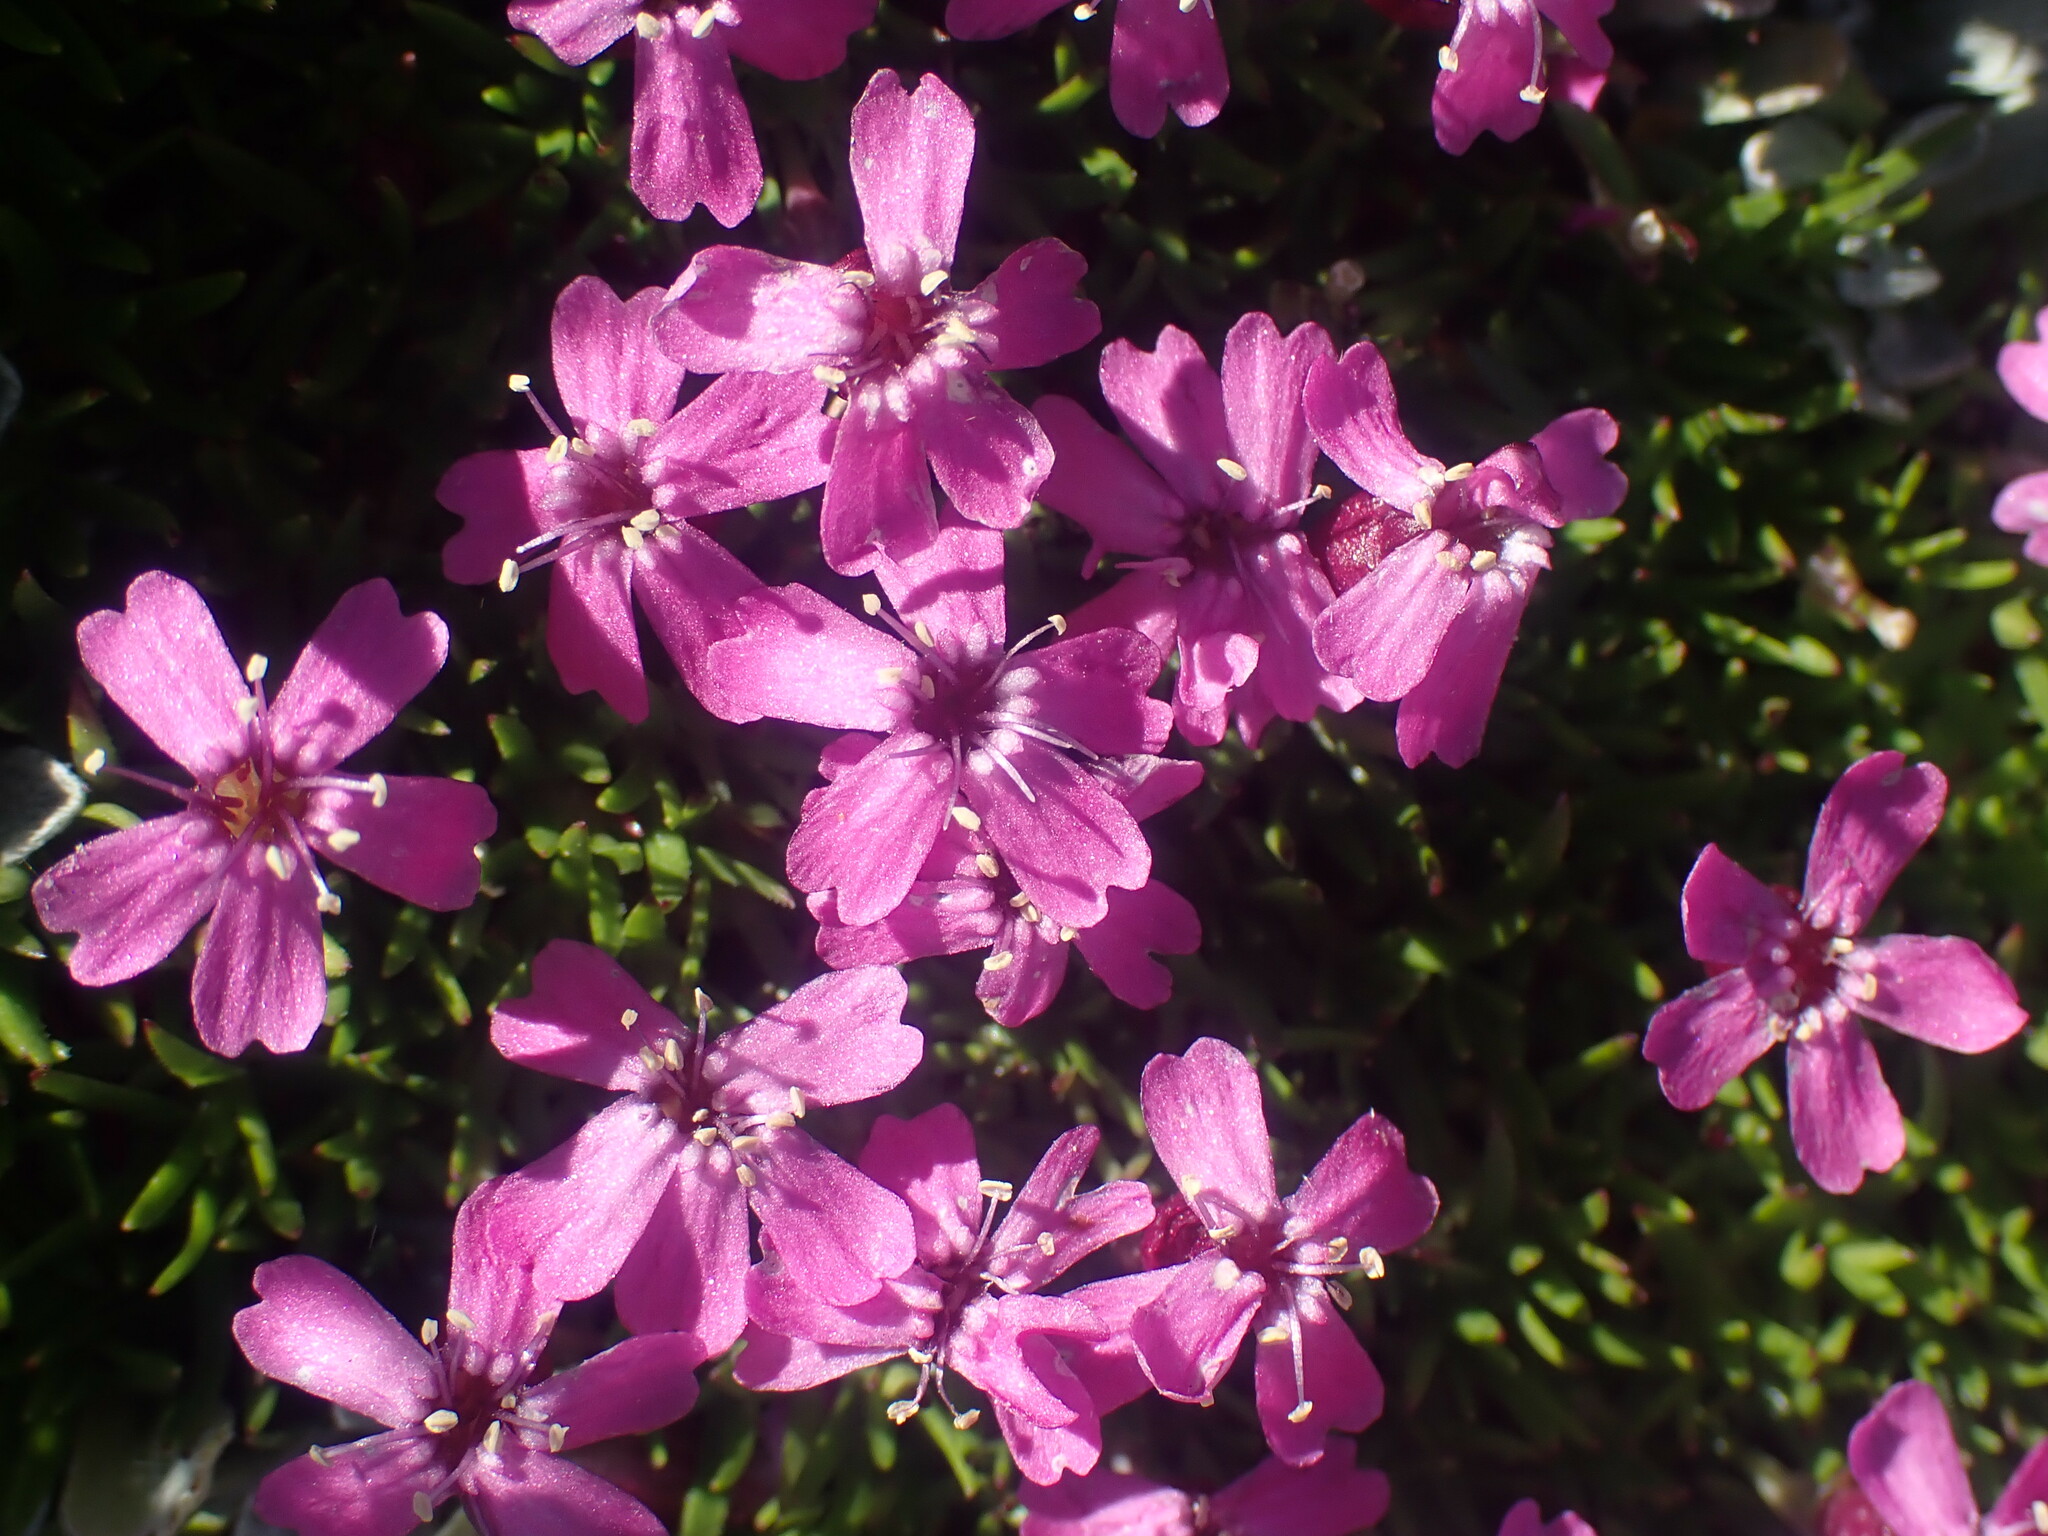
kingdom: Plantae
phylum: Tracheophyta
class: Magnoliopsida
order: Caryophyllales
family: Caryophyllaceae
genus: Silene
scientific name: Silene acaulis
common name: Moss campion
